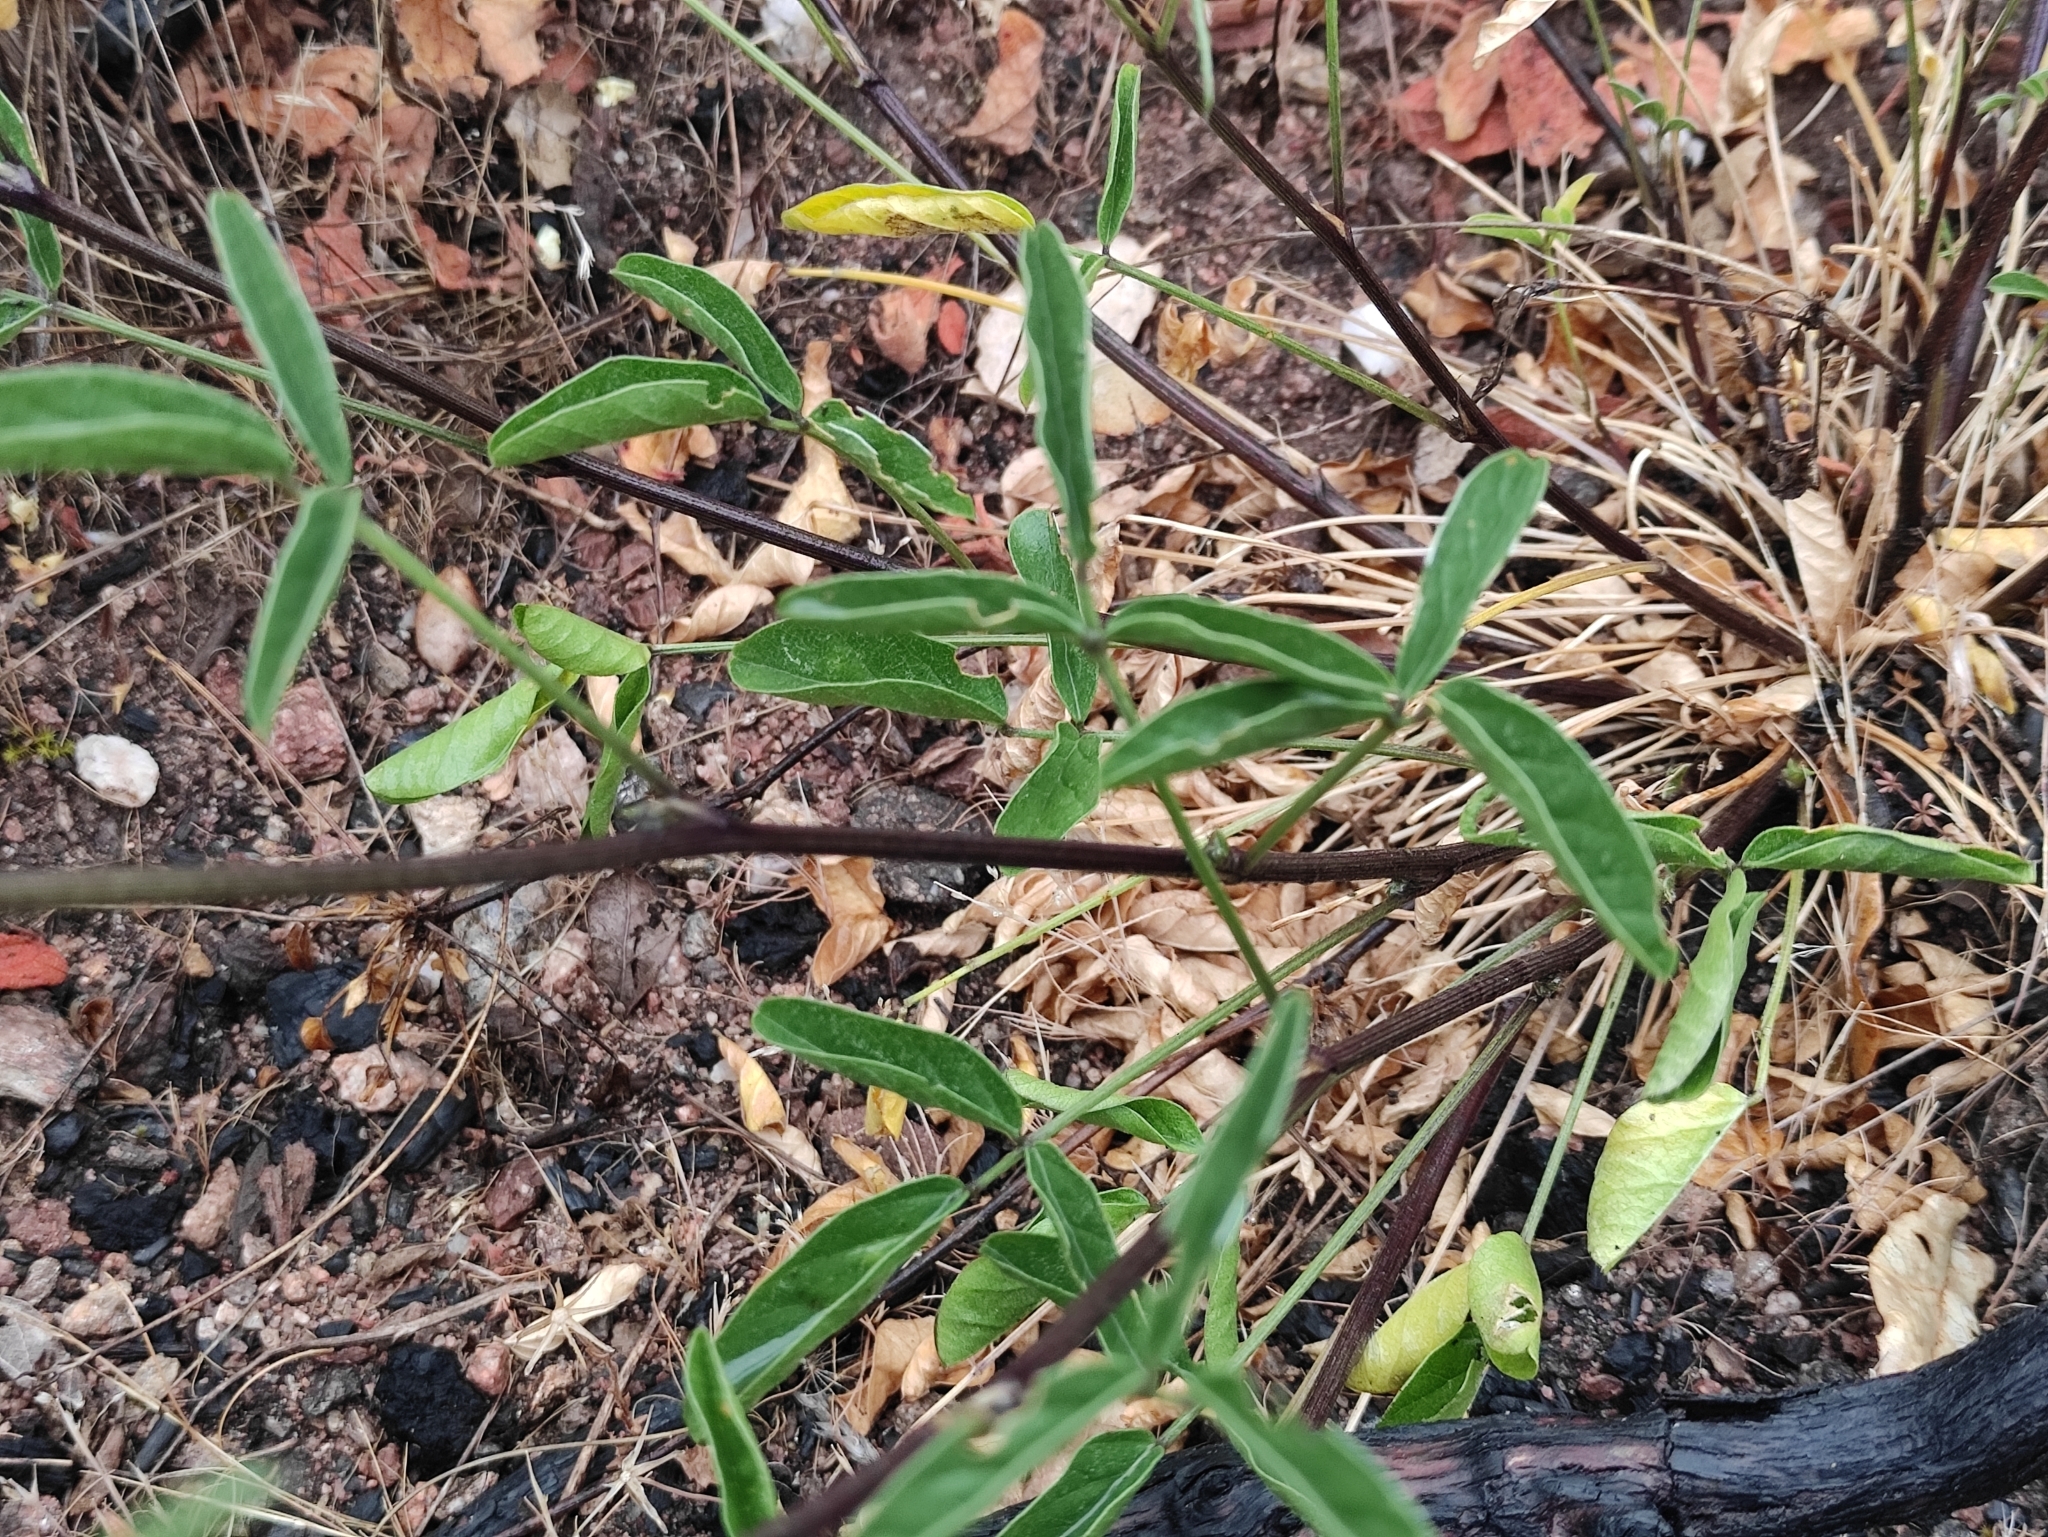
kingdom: Plantae
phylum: Tracheophyta
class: Magnoliopsida
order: Fabales
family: Fabaceae
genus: Bituminaria
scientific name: Bituminaria bituminosa
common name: Arabian pea
